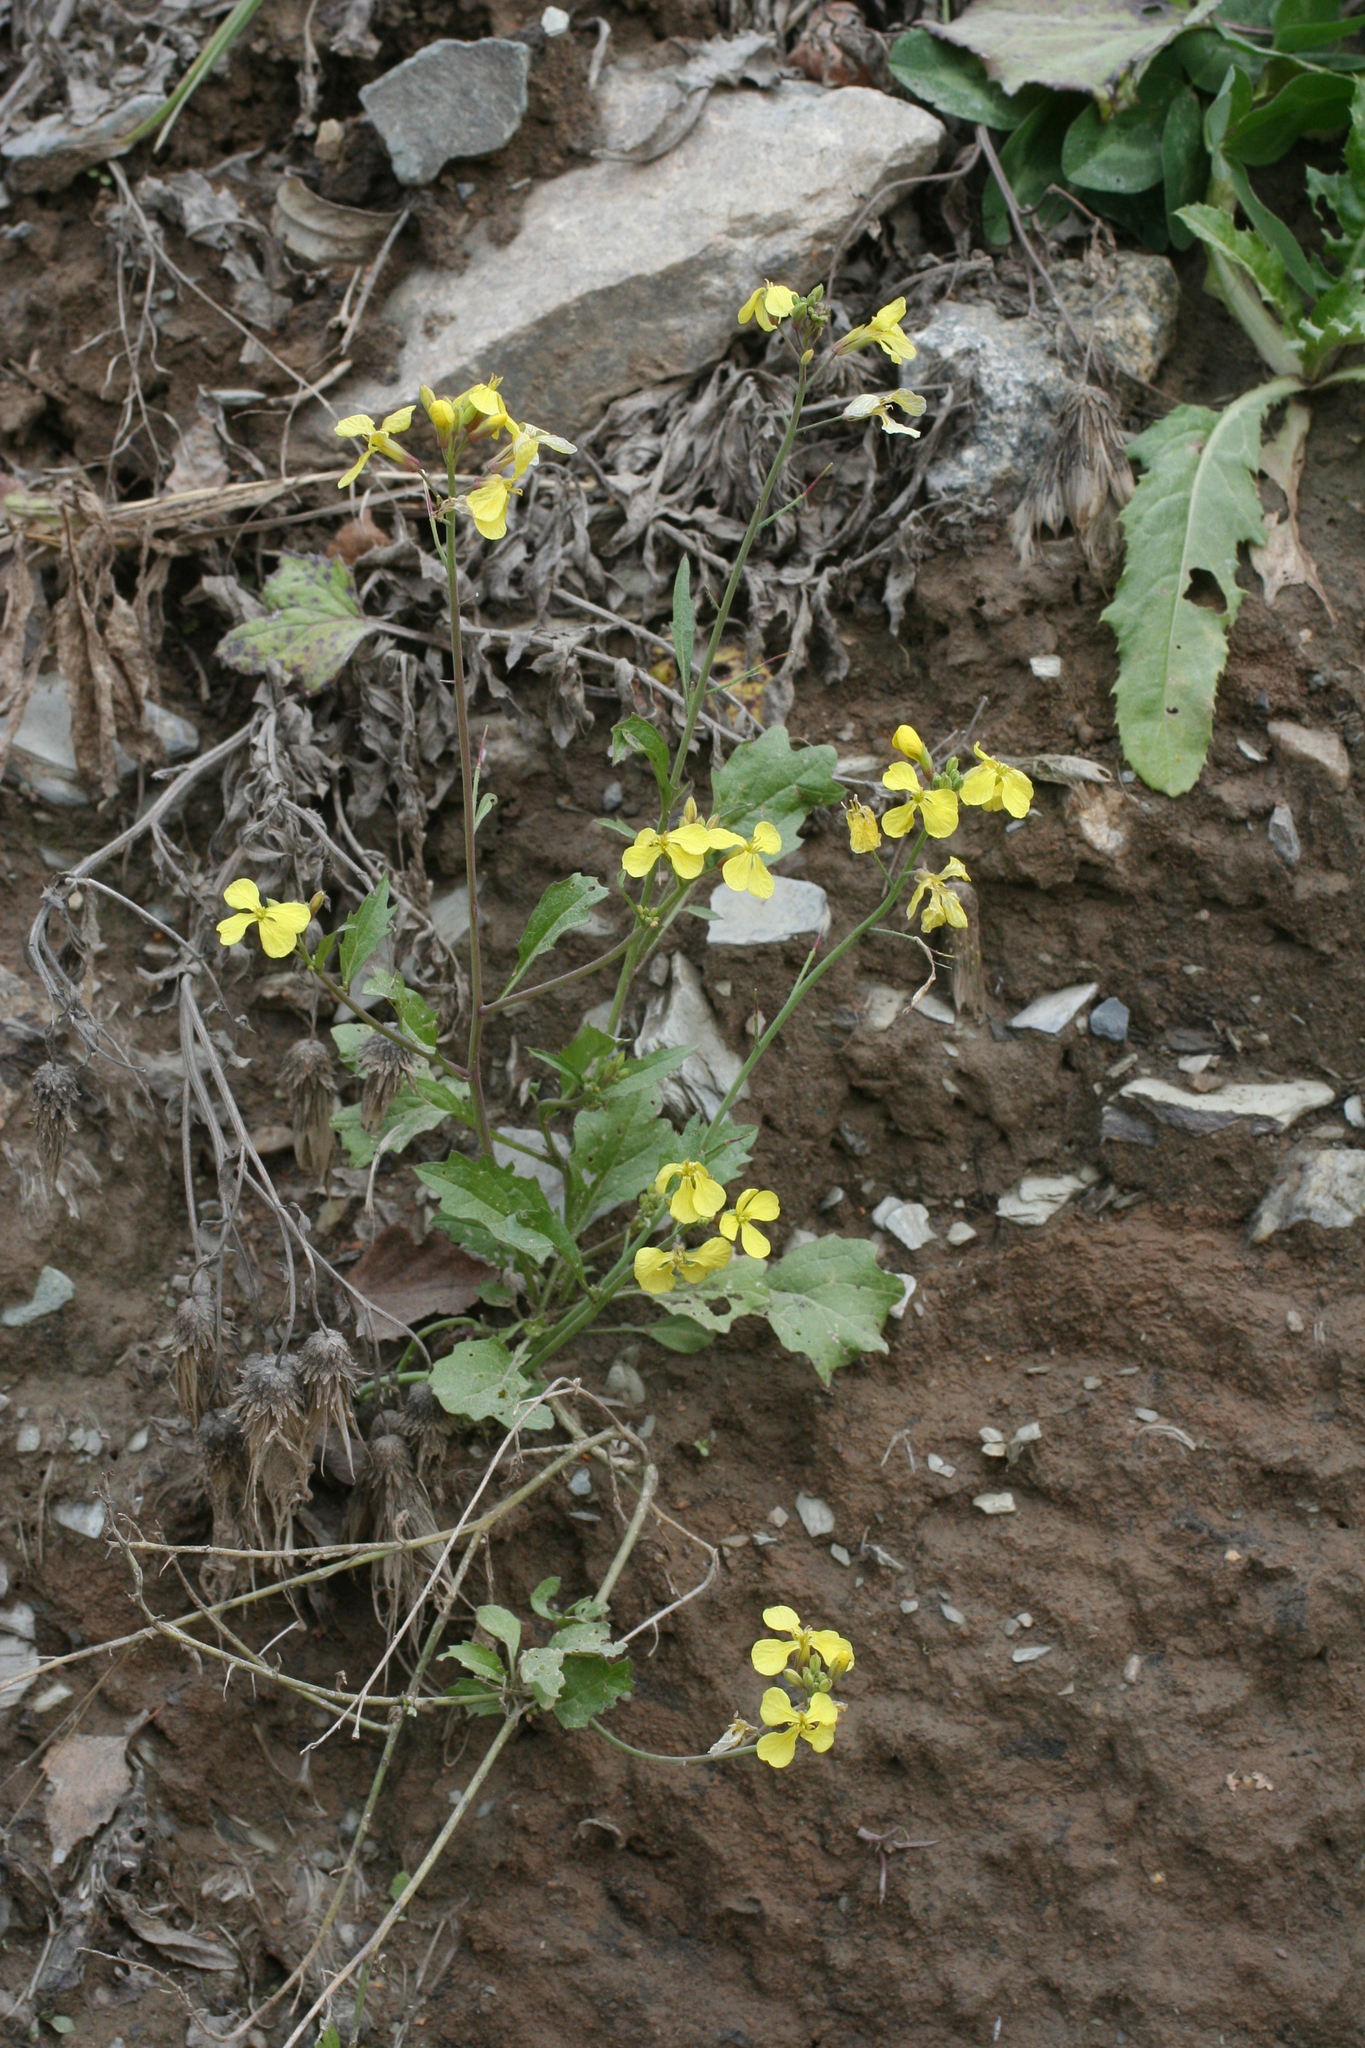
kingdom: Plantae
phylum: Tracheophyta
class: Magnoliopsida
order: Brassicales
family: Brassicaceae
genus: Raphanus
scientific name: Raphanus raphanistrum
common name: Wild radish
